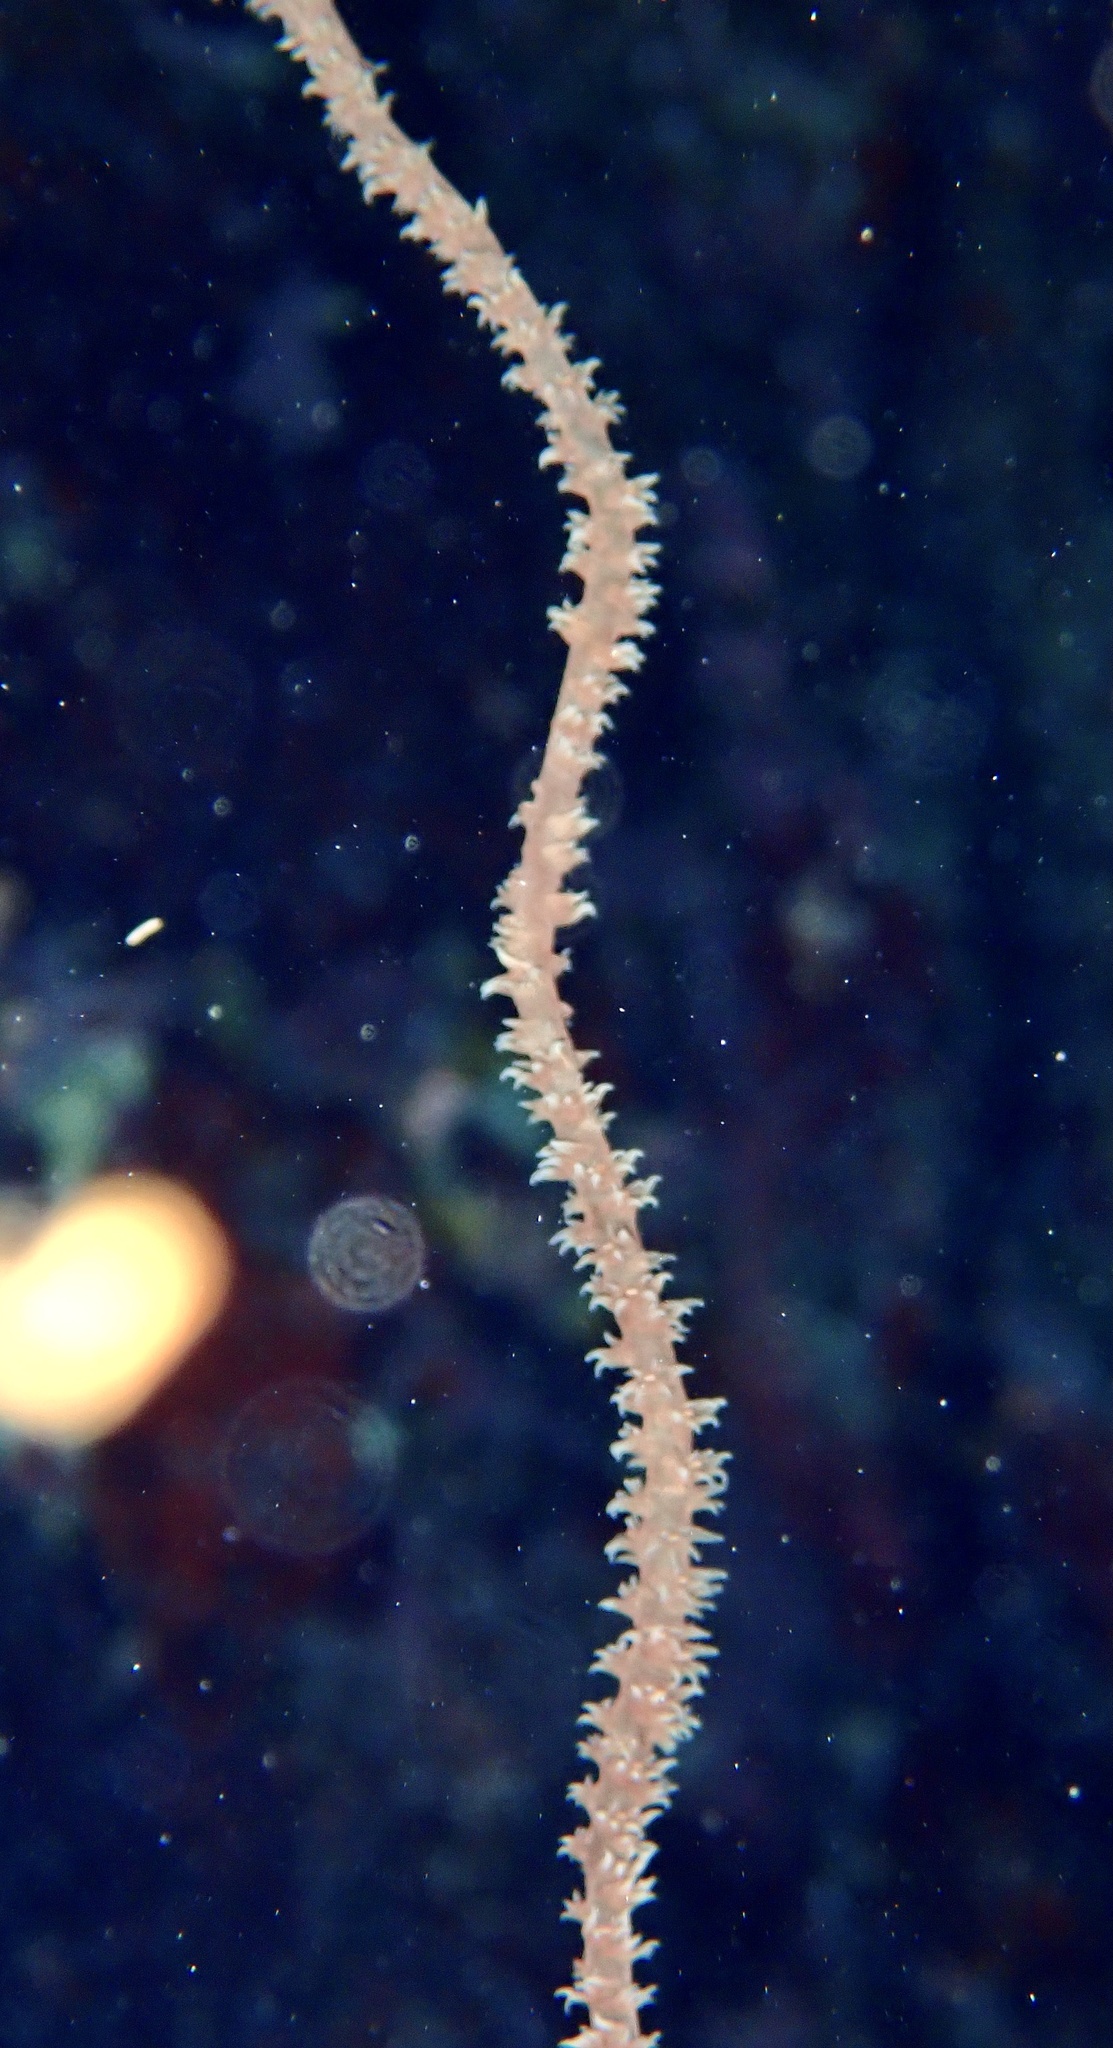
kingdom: Animalia
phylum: Cnidaria
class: Anthozoa
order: Antipatharia
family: Antipathidae
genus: Cirrhipathes
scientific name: Cirrhipathes
